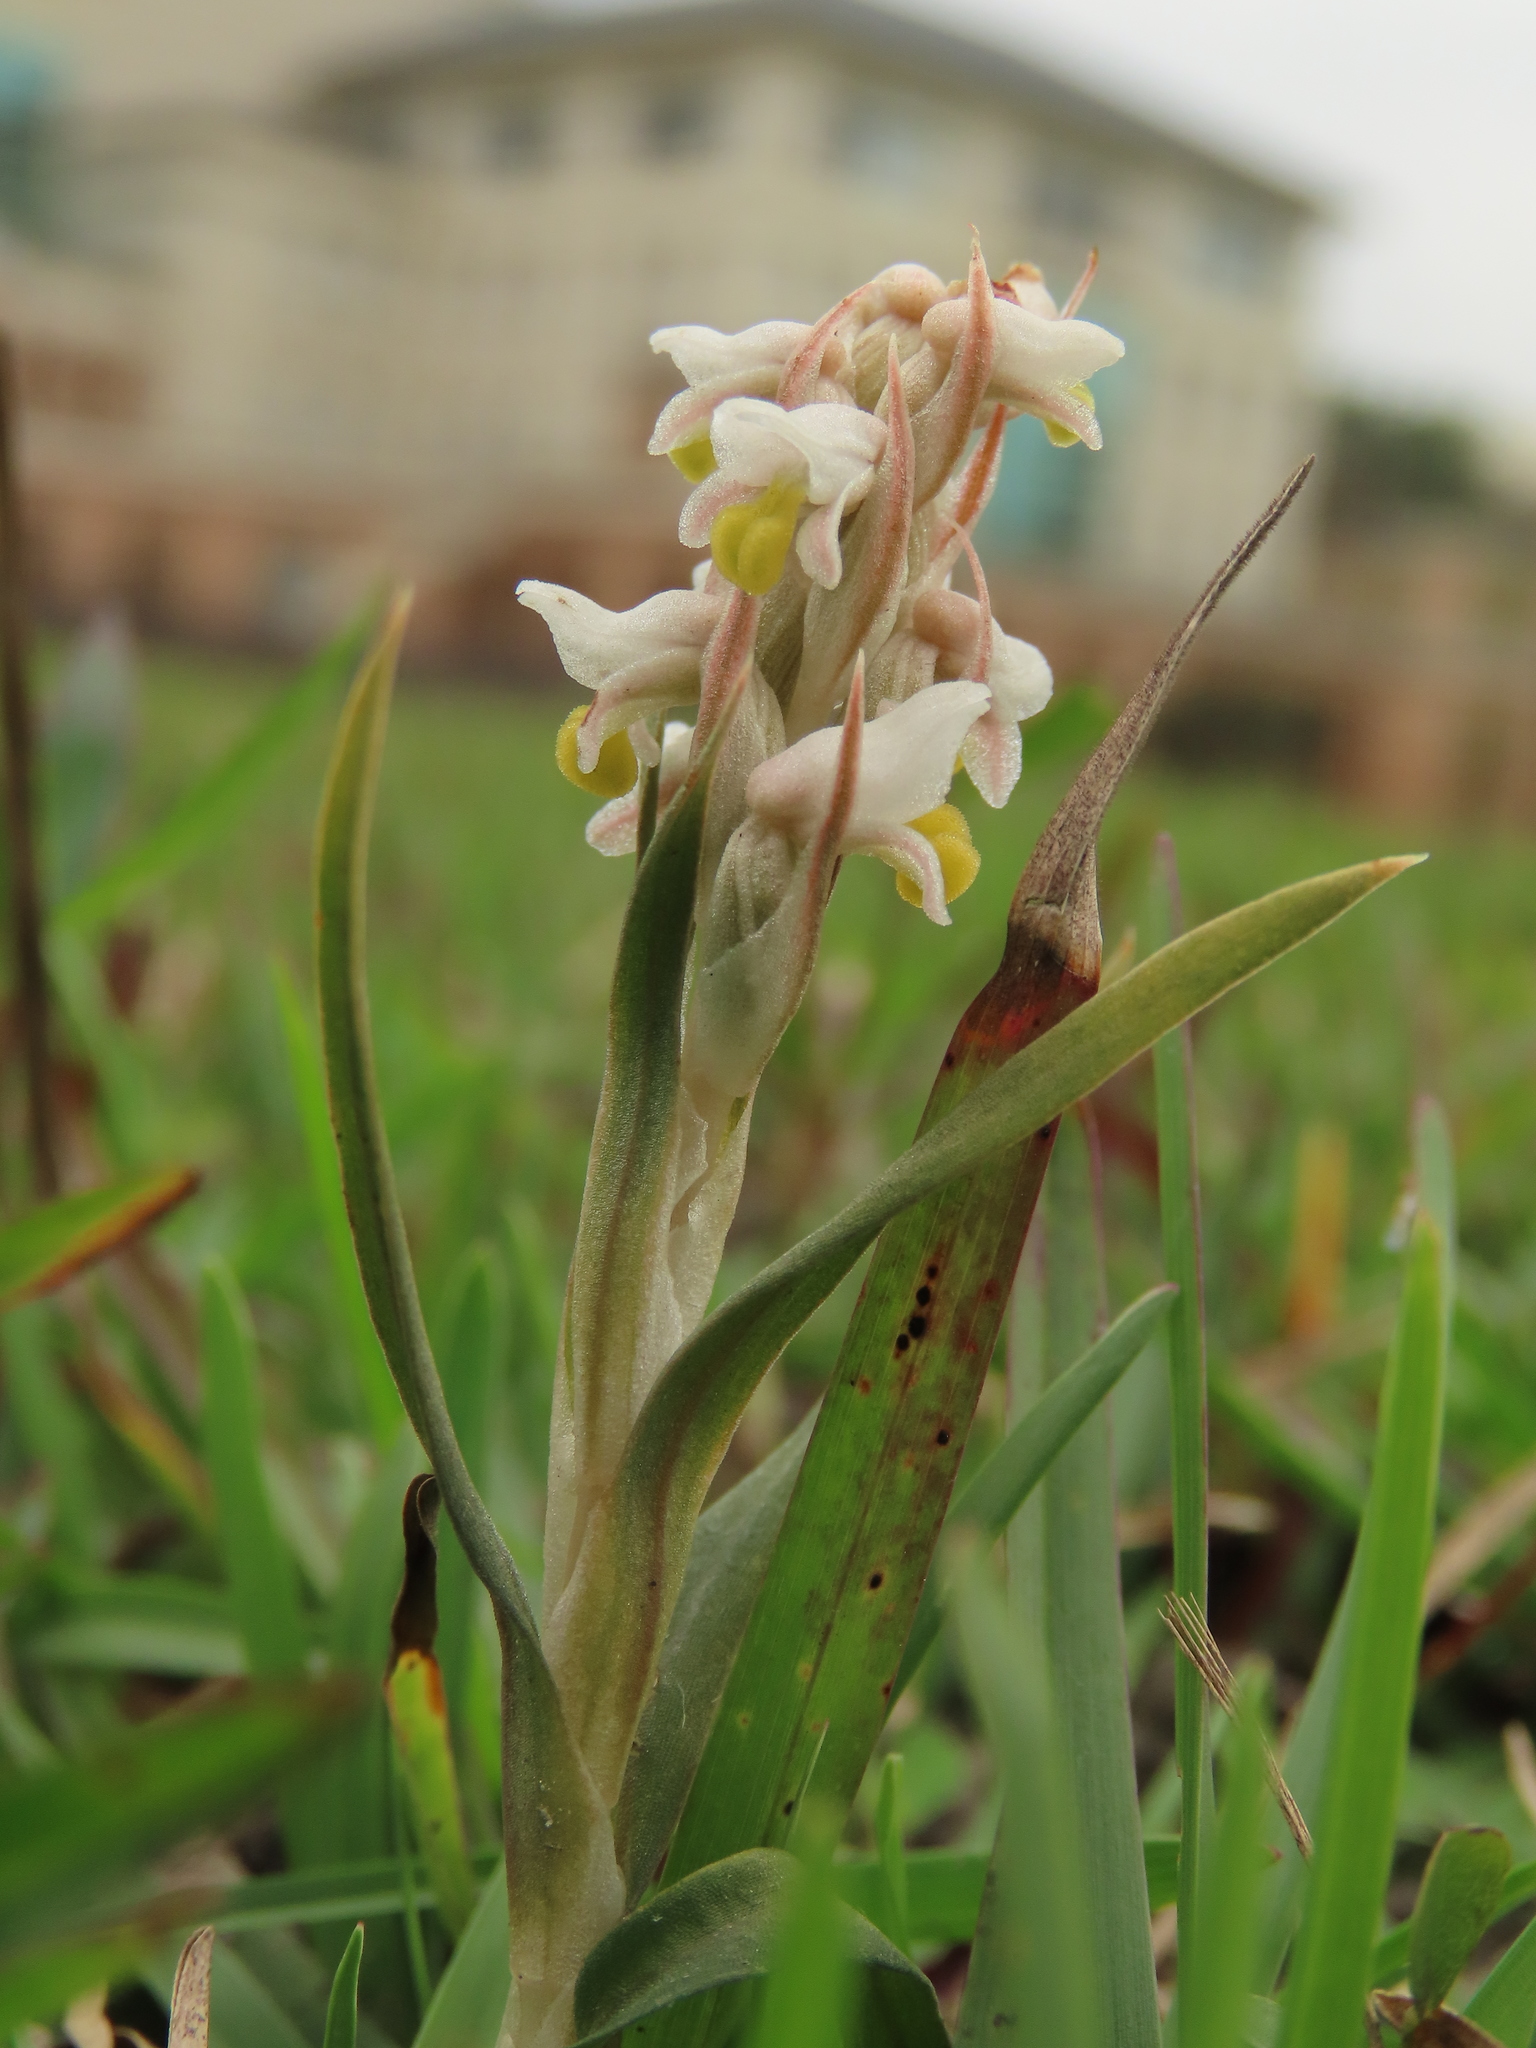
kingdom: Plantae
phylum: Tracheophyta
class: Liliopsida
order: Asparagales
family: Orchidaceae
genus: Zeuxine
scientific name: Zeuxine strateumatica
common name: Soldier's orchid
